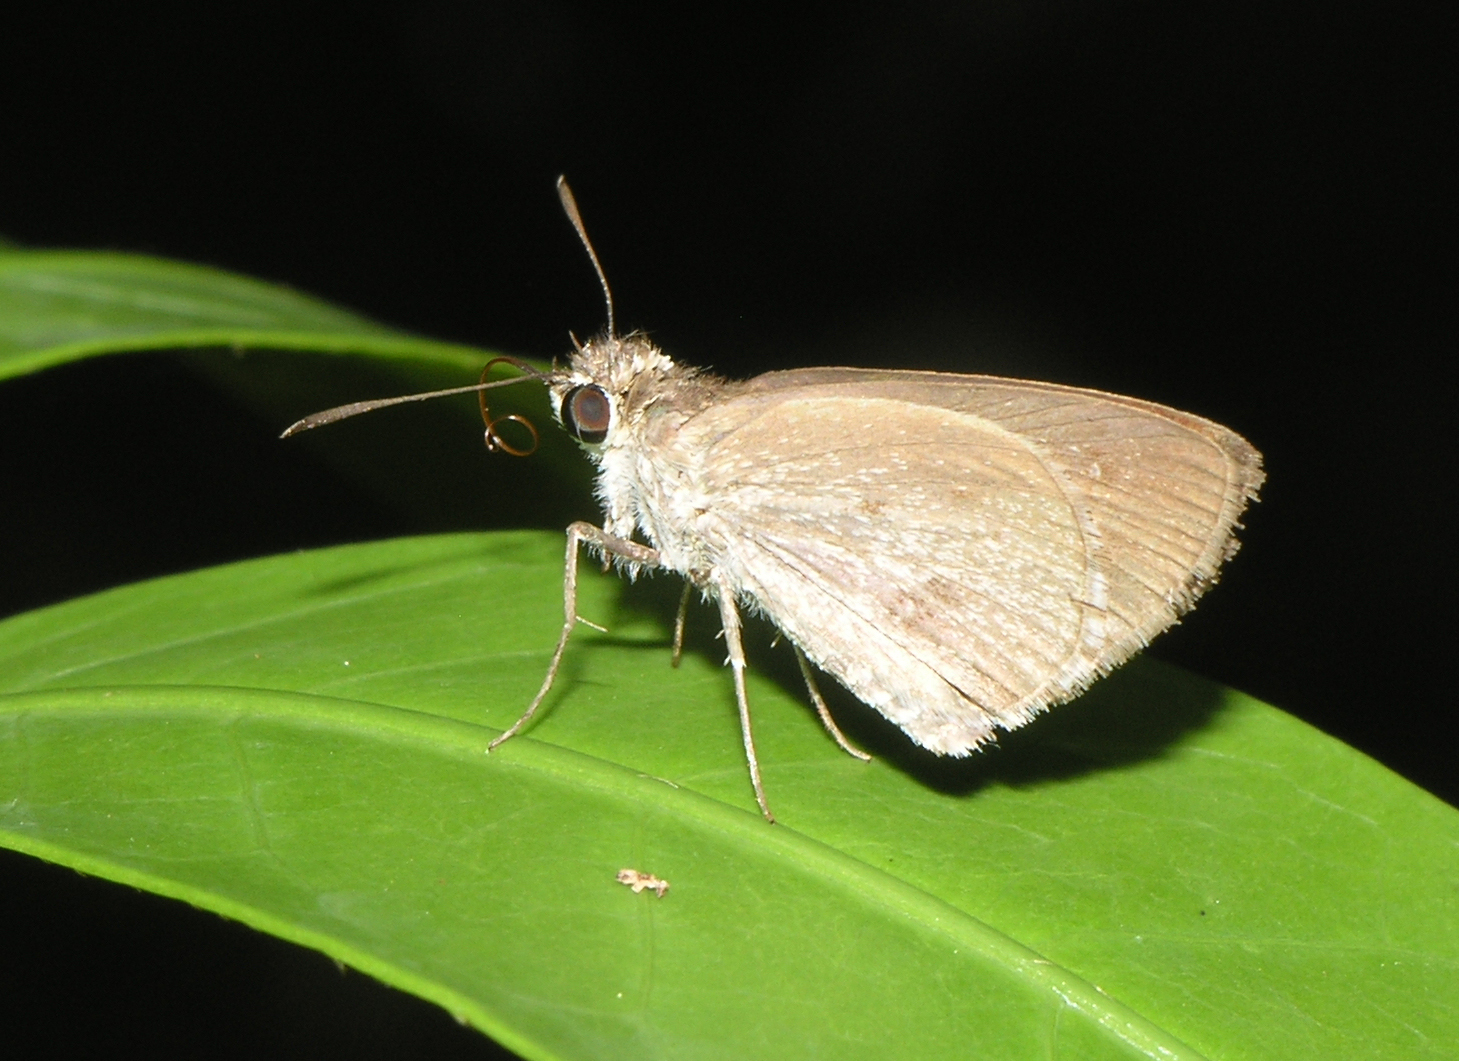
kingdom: Animalia
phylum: Arthropoda
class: Insecta
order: Lepidoptera
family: Hesperiidae
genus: Suastus
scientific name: Suastus minuta
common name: Small palm bob
